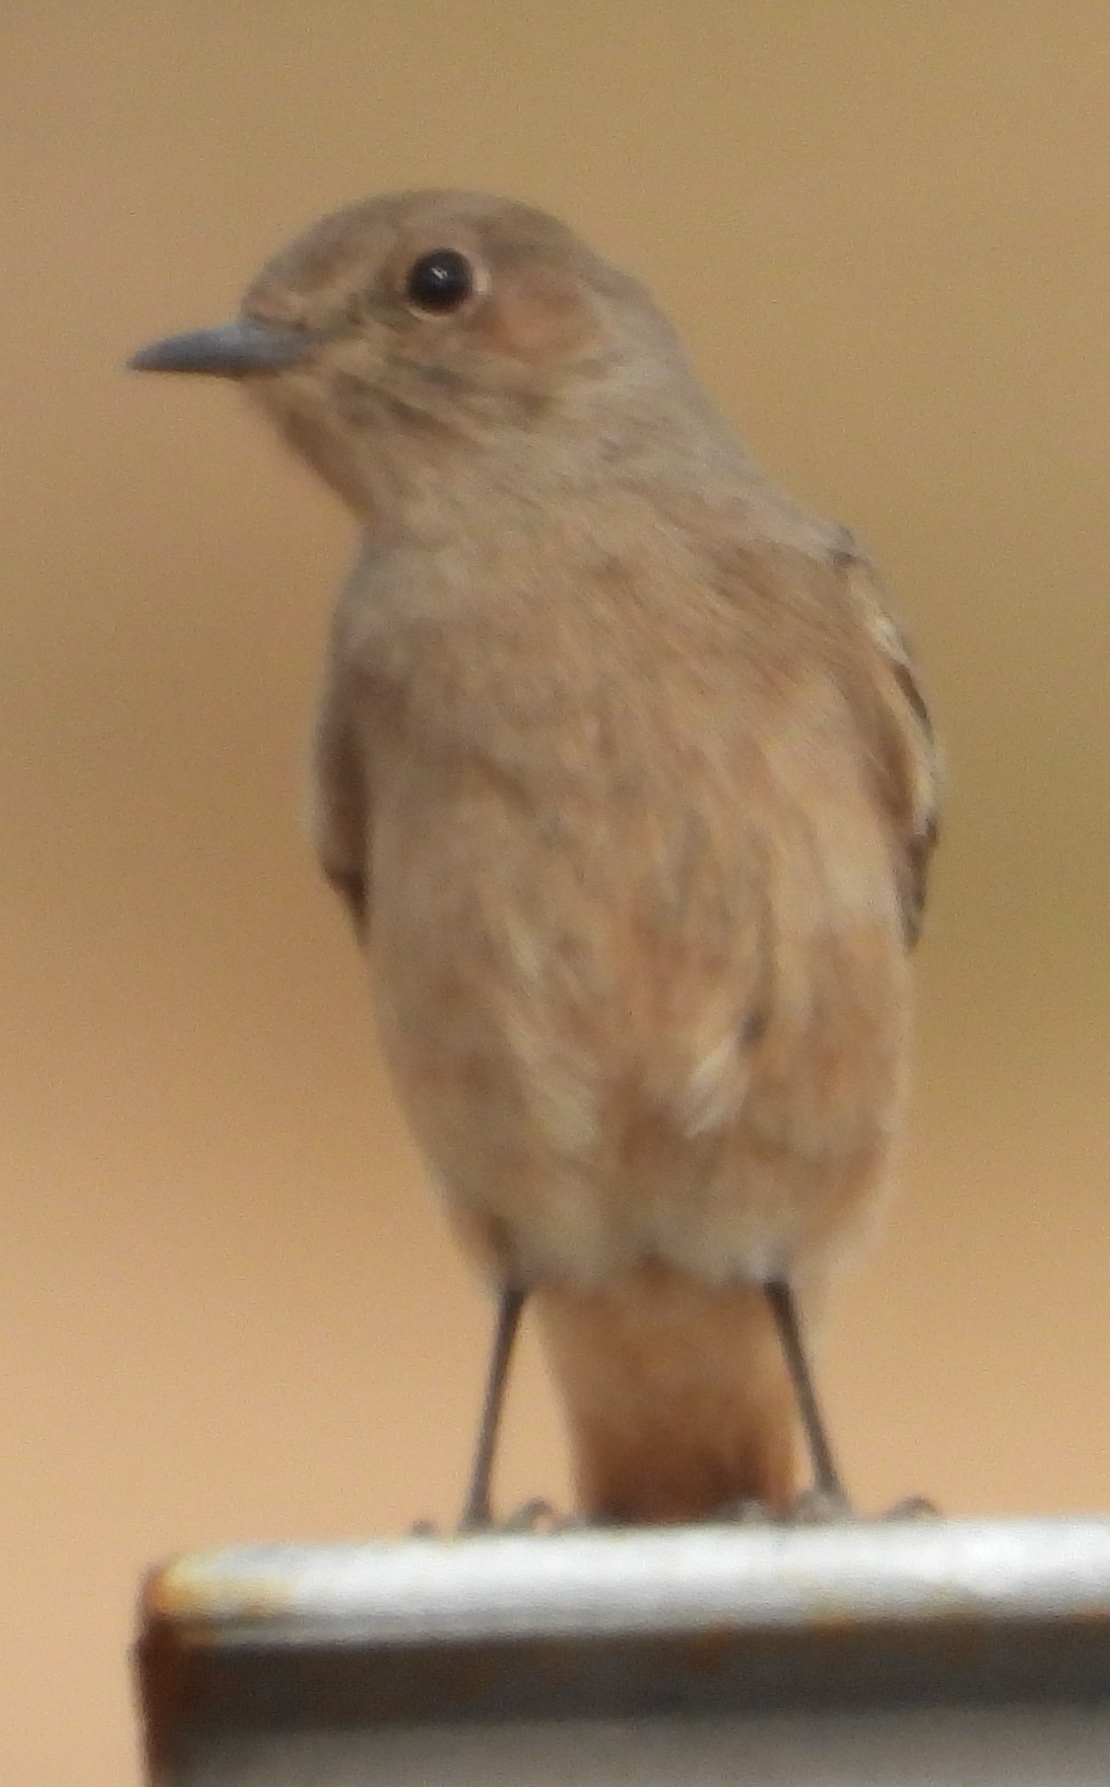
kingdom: Animalia
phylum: Chordata
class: Aves
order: Passeriformes
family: Muscicapidae
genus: Oenanthe
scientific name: Oenanthe familiaris
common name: Familiar chat
